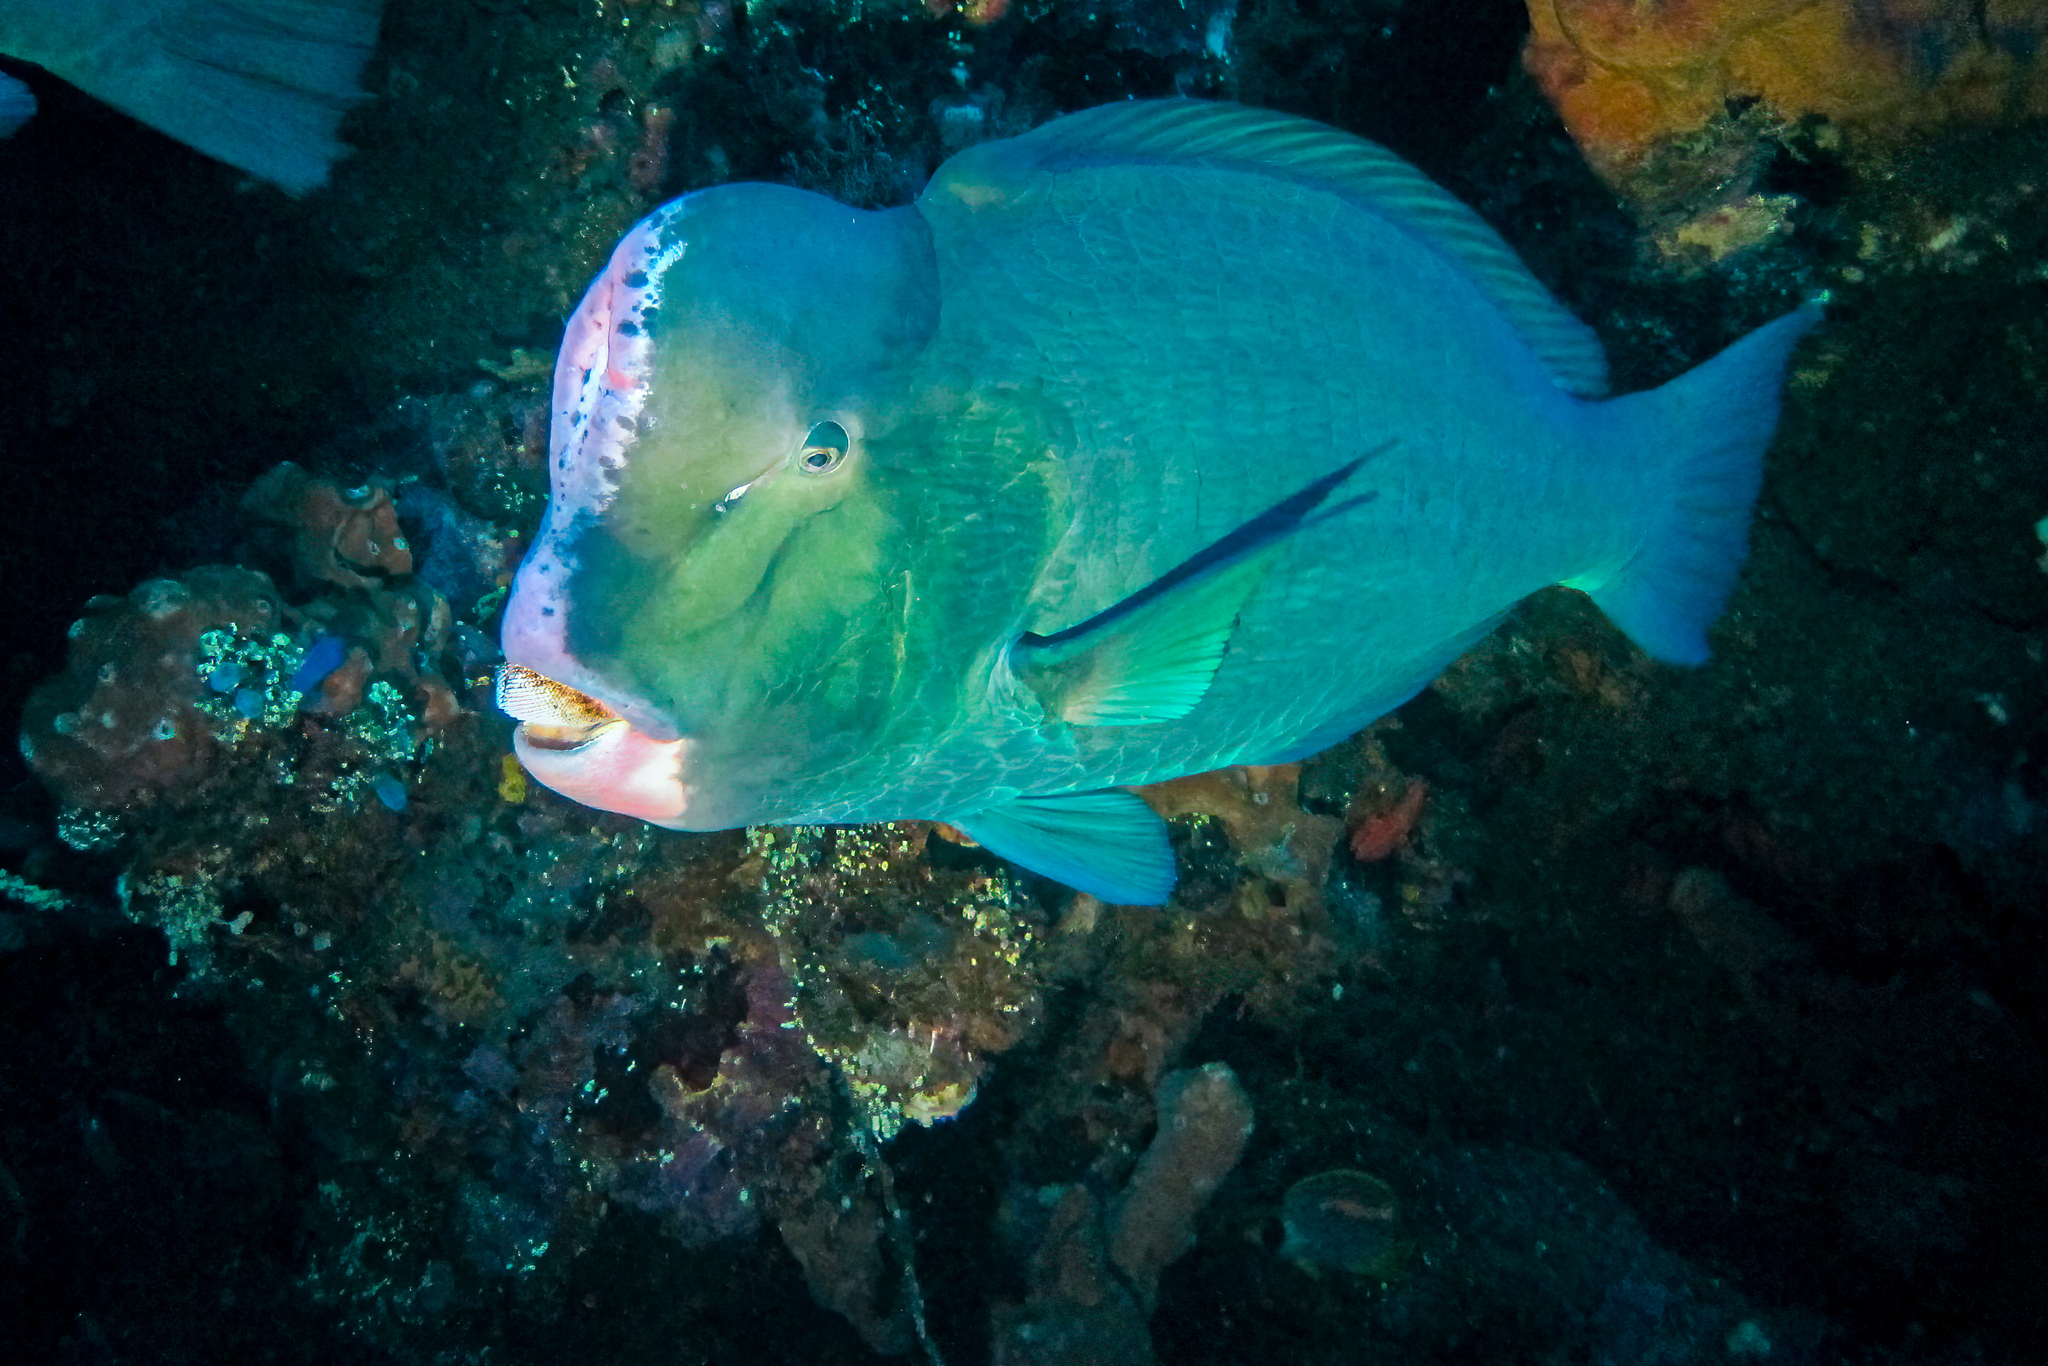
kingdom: Animalia
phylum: Chordata
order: Perciformes
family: Scaridae
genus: Bolbometopon
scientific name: Bolbometopon muricatum
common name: Humphead parrotfish
